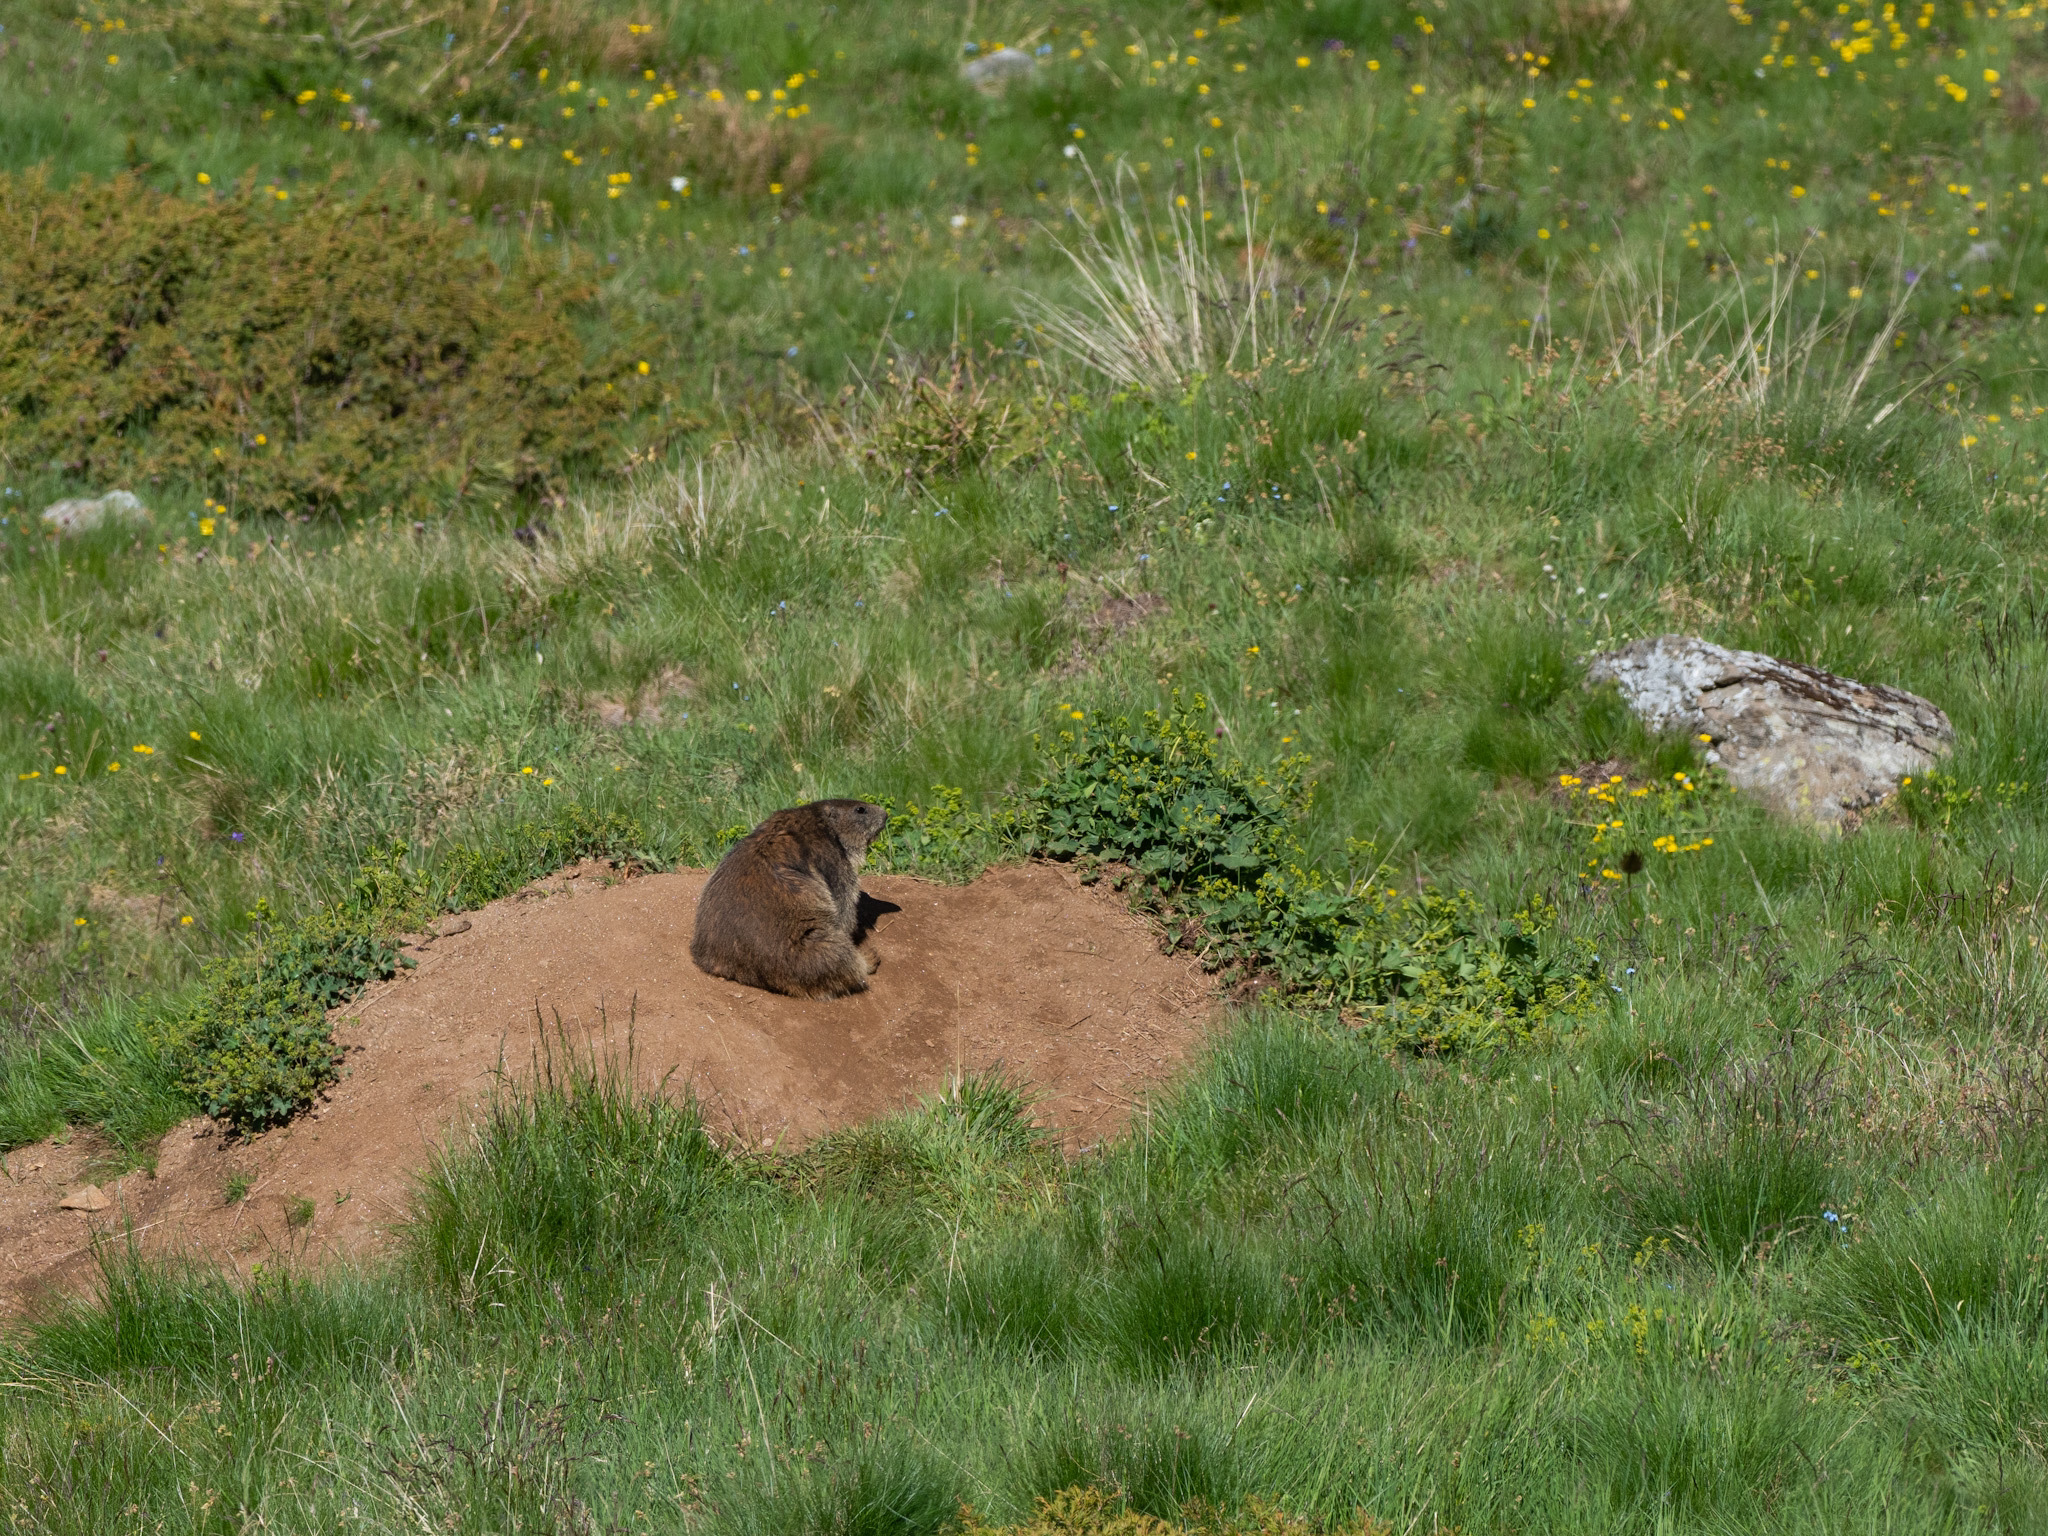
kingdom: Animalia
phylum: Chordata
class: Mammalia
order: Rodentia
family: Sciuridae
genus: Marmota
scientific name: Marmota marmota
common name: Alpine marmot
